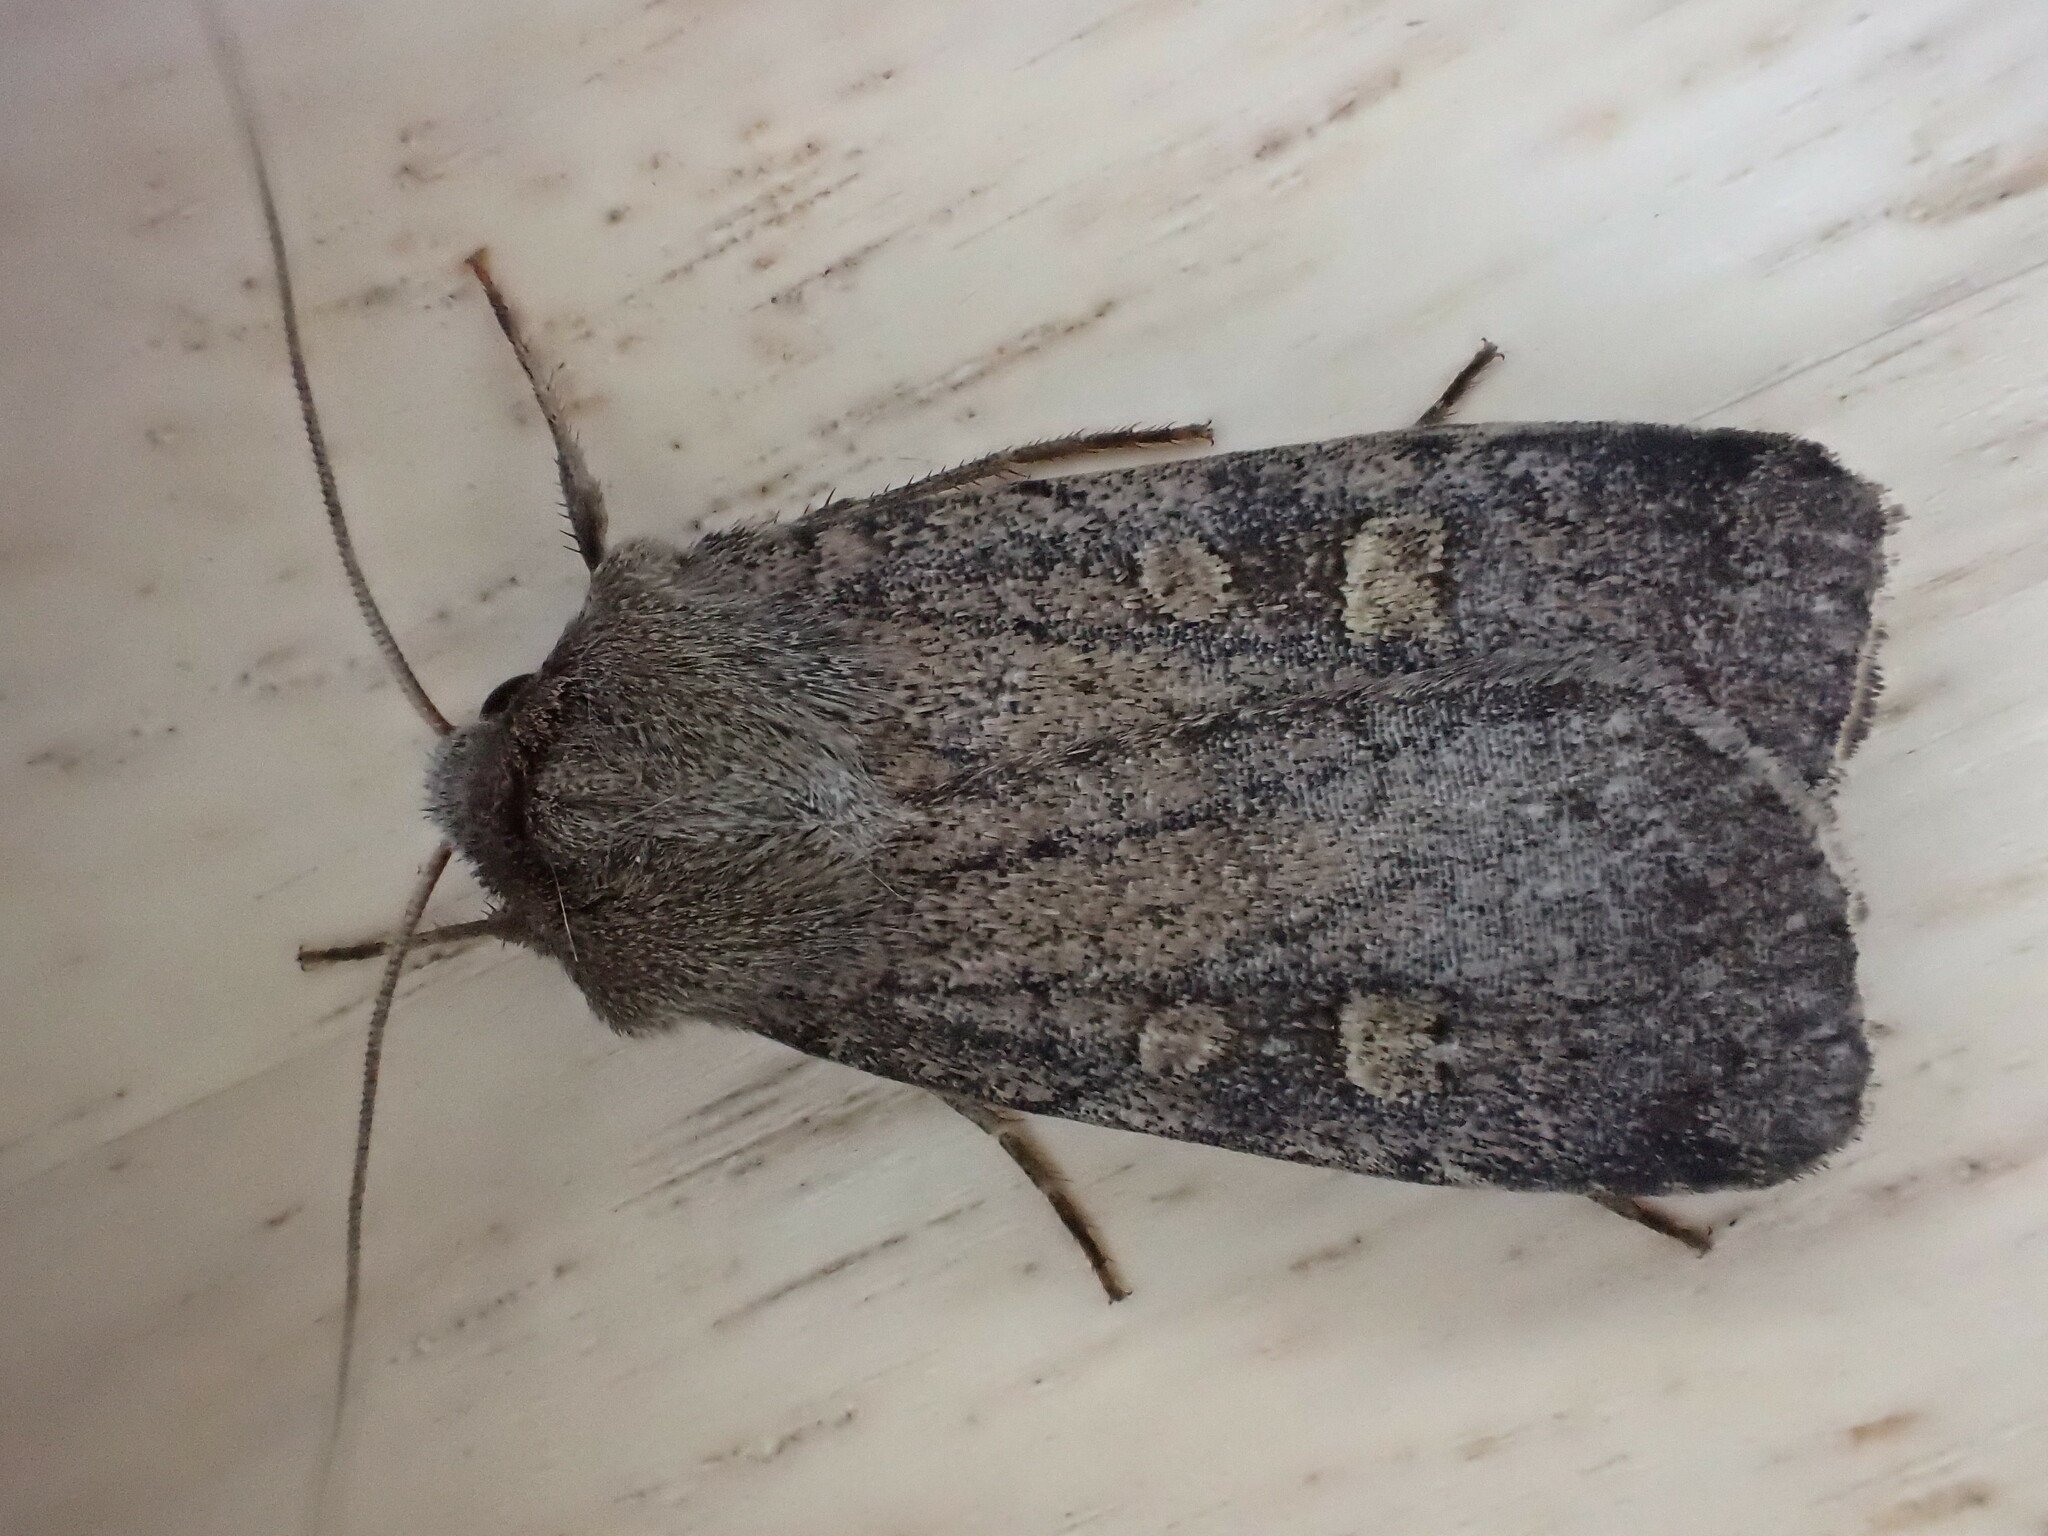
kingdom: Animalia
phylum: Arthropoda
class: Insecta
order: Lepidoptera
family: Noctuidae
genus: Xestia
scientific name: Xestia xanthographa
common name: Square-spot rustic
